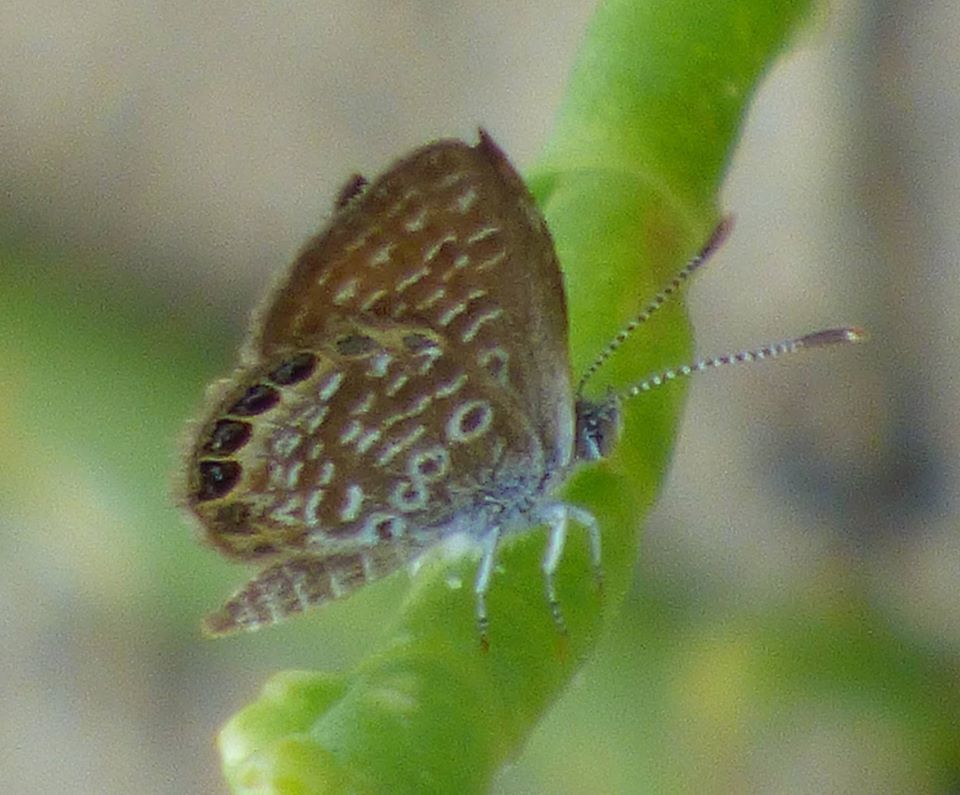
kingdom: Animalia
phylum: Arthropoda
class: Insecta
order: Lepidoptera
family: Lycaenidae
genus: Brephidium
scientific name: Brephidium isophthalma
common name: Eastern pygmy-blue
